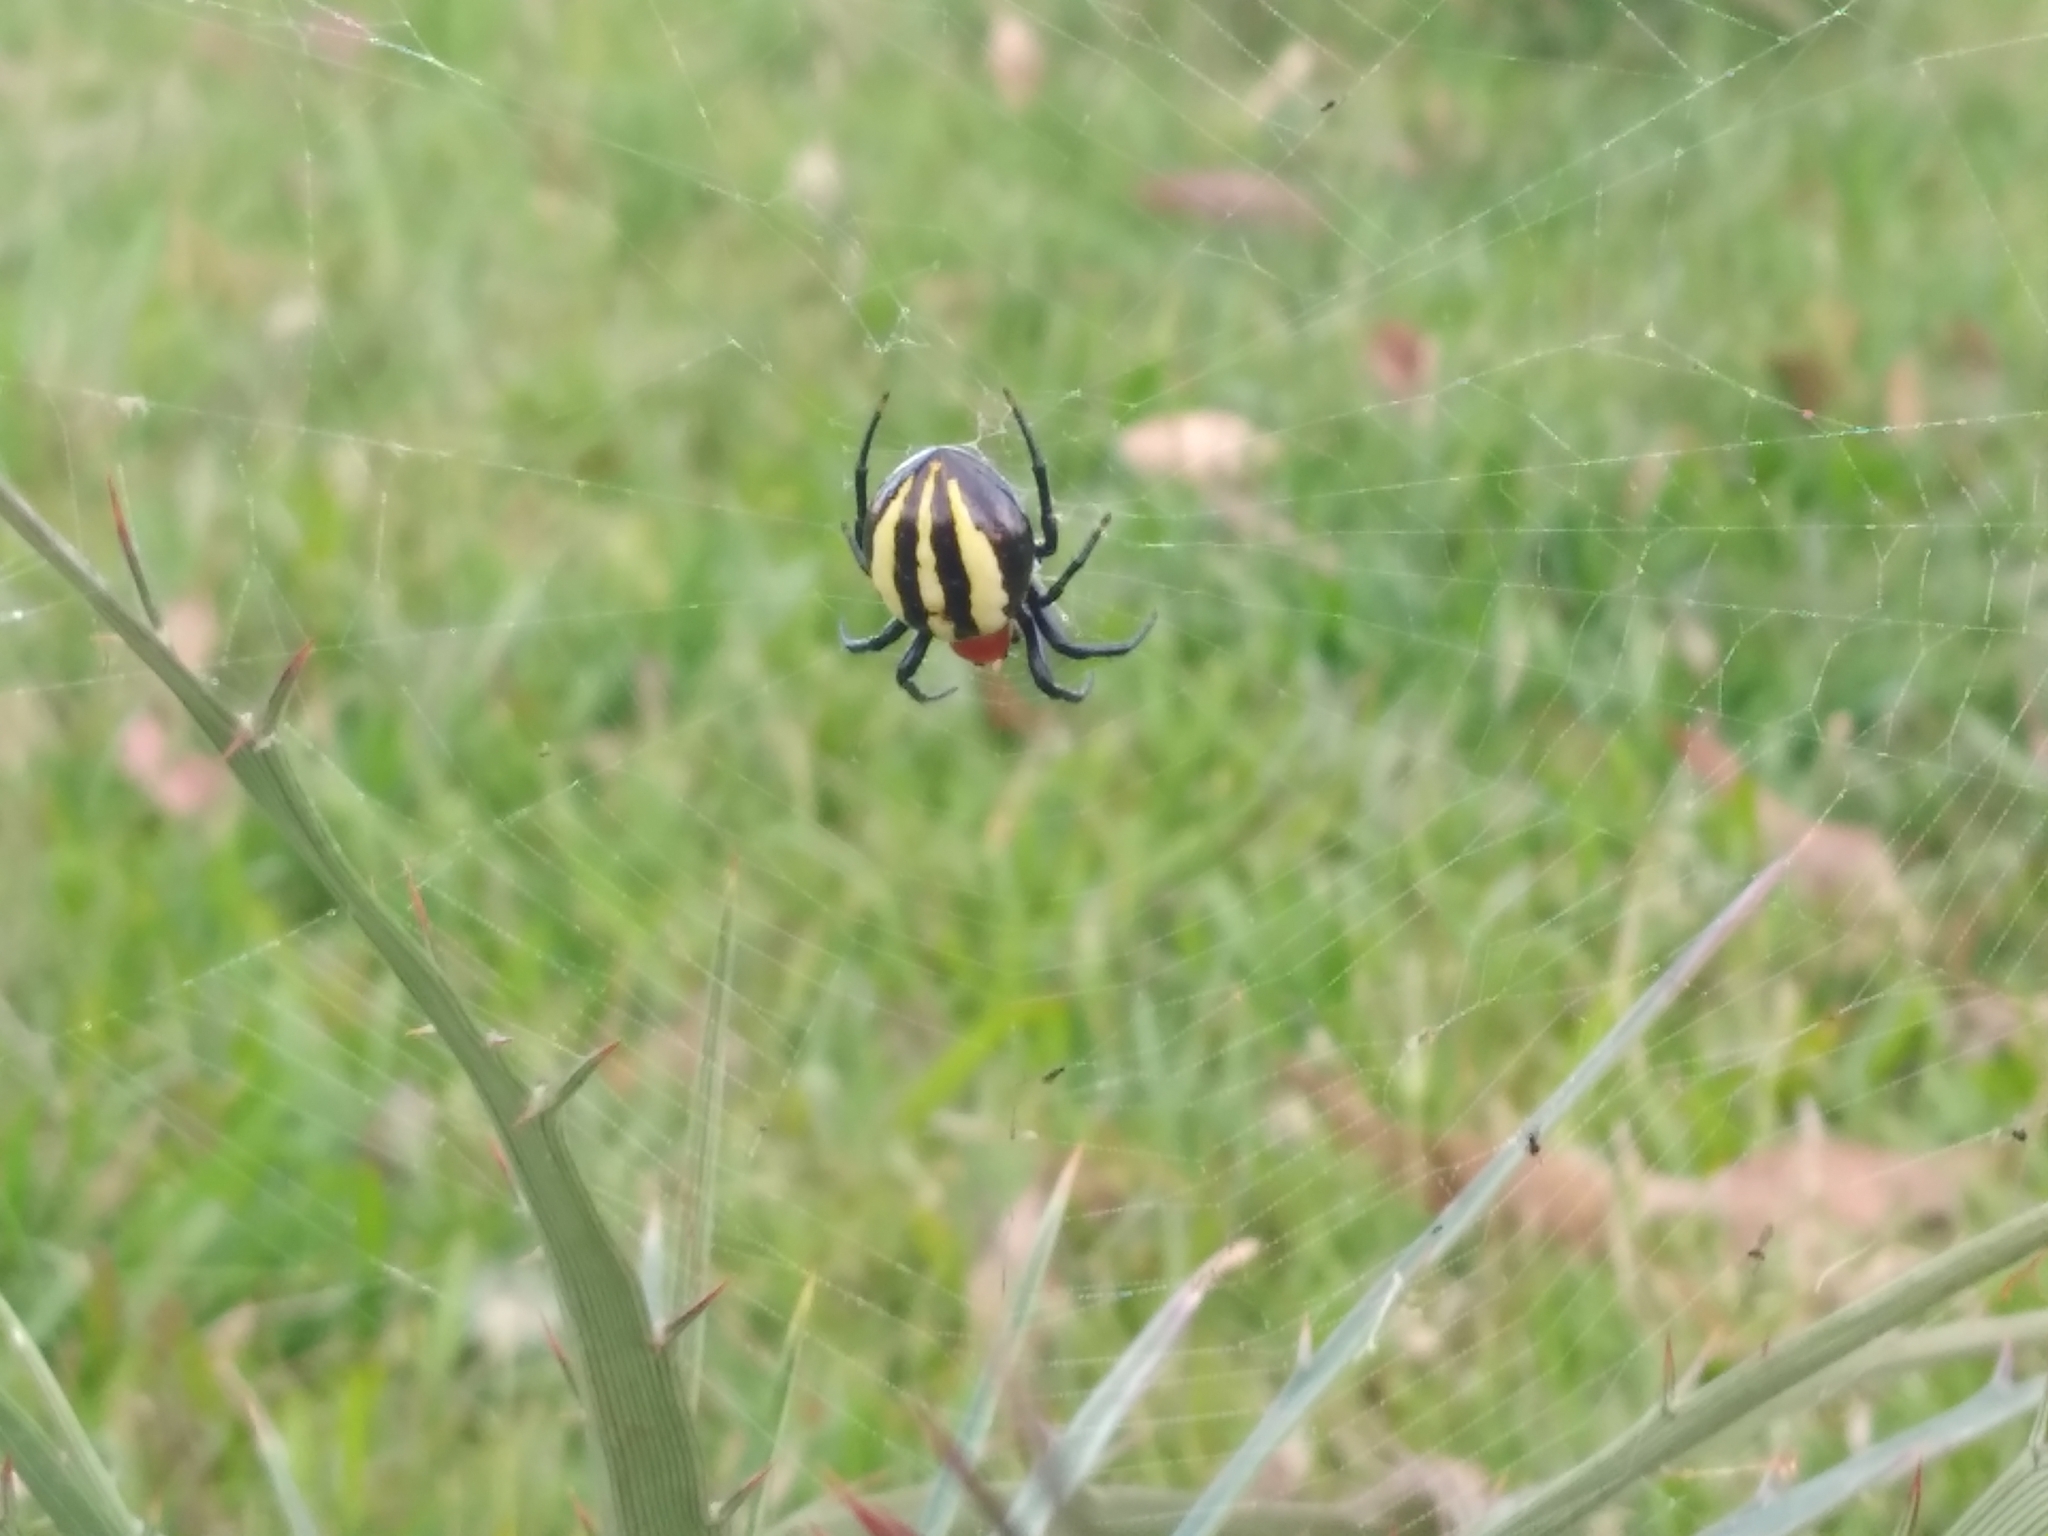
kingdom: Animalia
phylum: Arthropoda
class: Arachnida
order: Araneae
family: Araneidae
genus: Alpaida
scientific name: Alpaida quadrilorata
